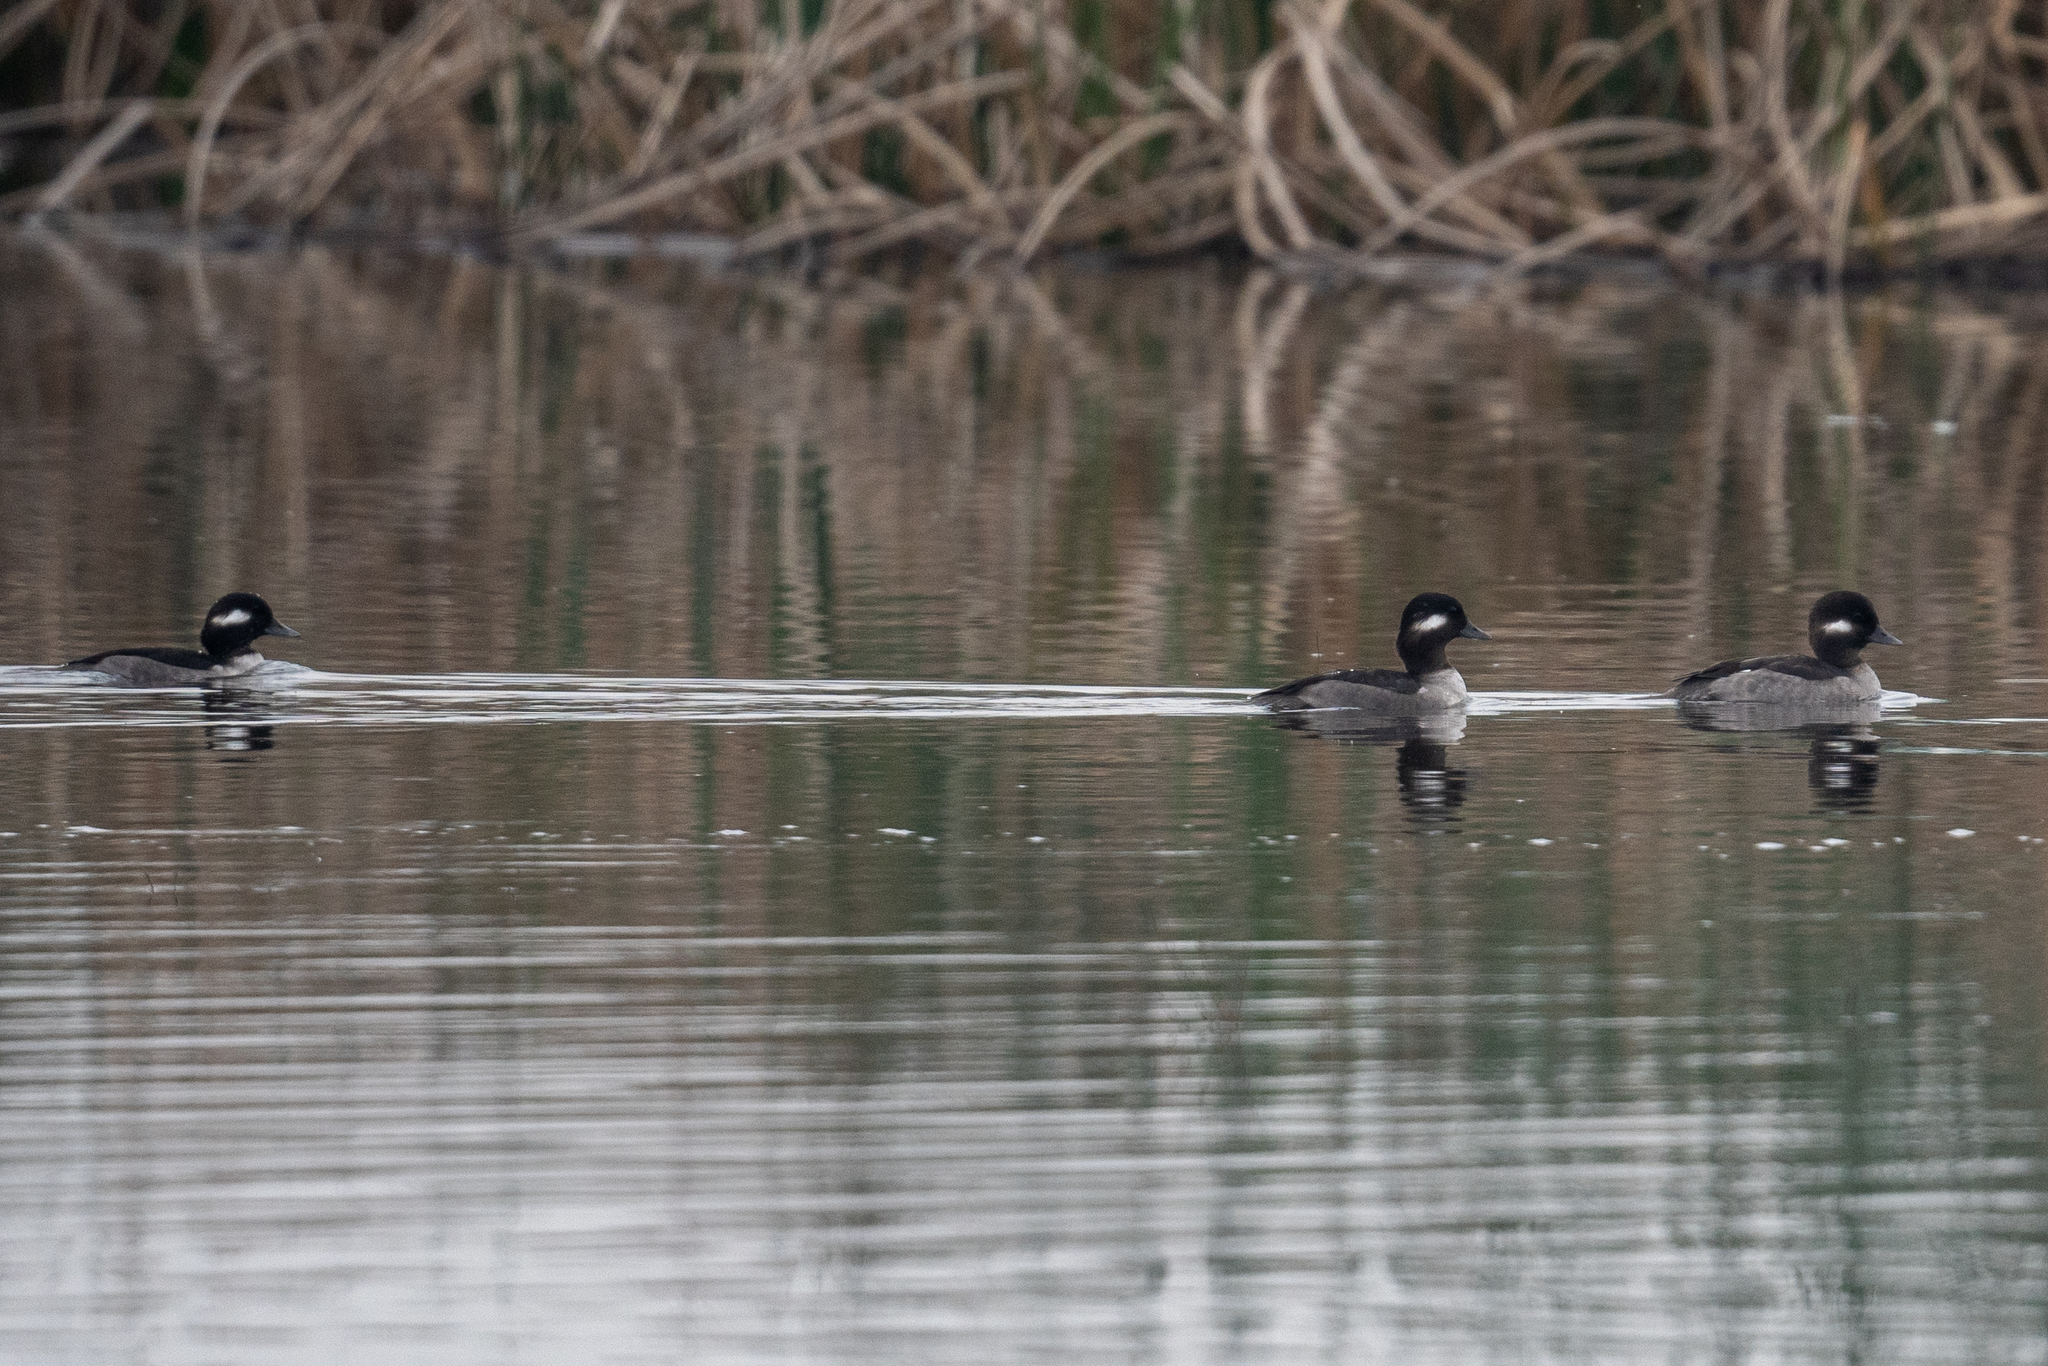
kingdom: Animalia
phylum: Chordata
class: Aves
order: Anseriformes
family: Anatidae
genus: Bucephala
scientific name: Bucephala albeola
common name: Bufflehead
